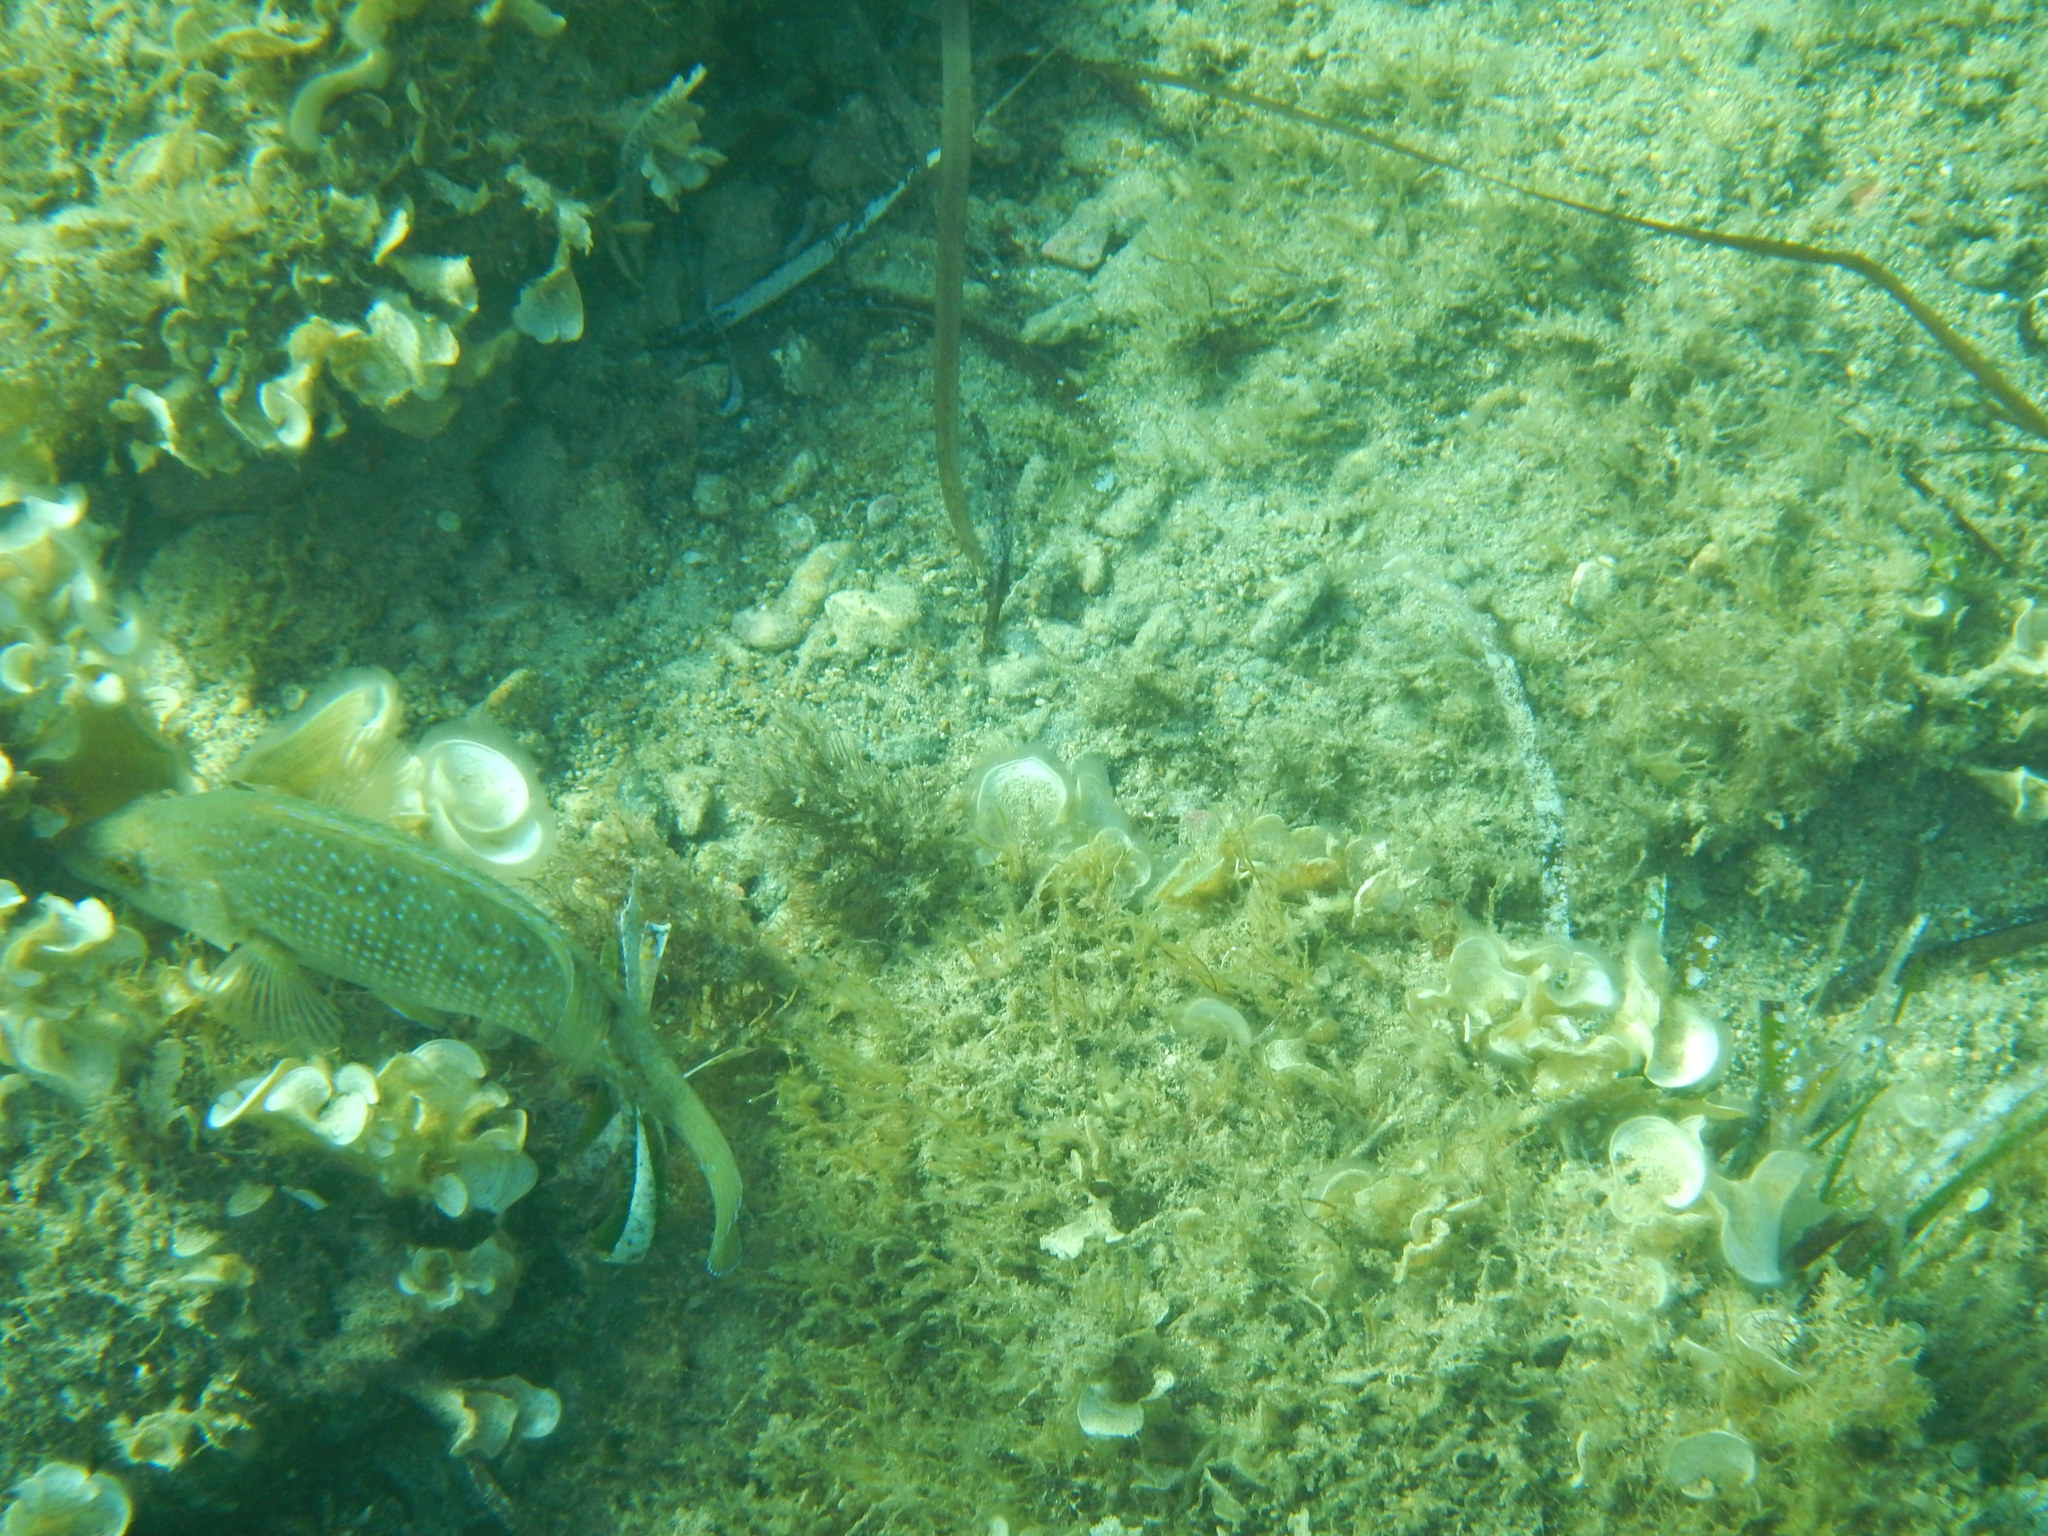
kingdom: Animalia
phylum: Chordata
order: Perciformes
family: Labridae
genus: Labrus
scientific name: Labrus merula
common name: Brown wrasse
